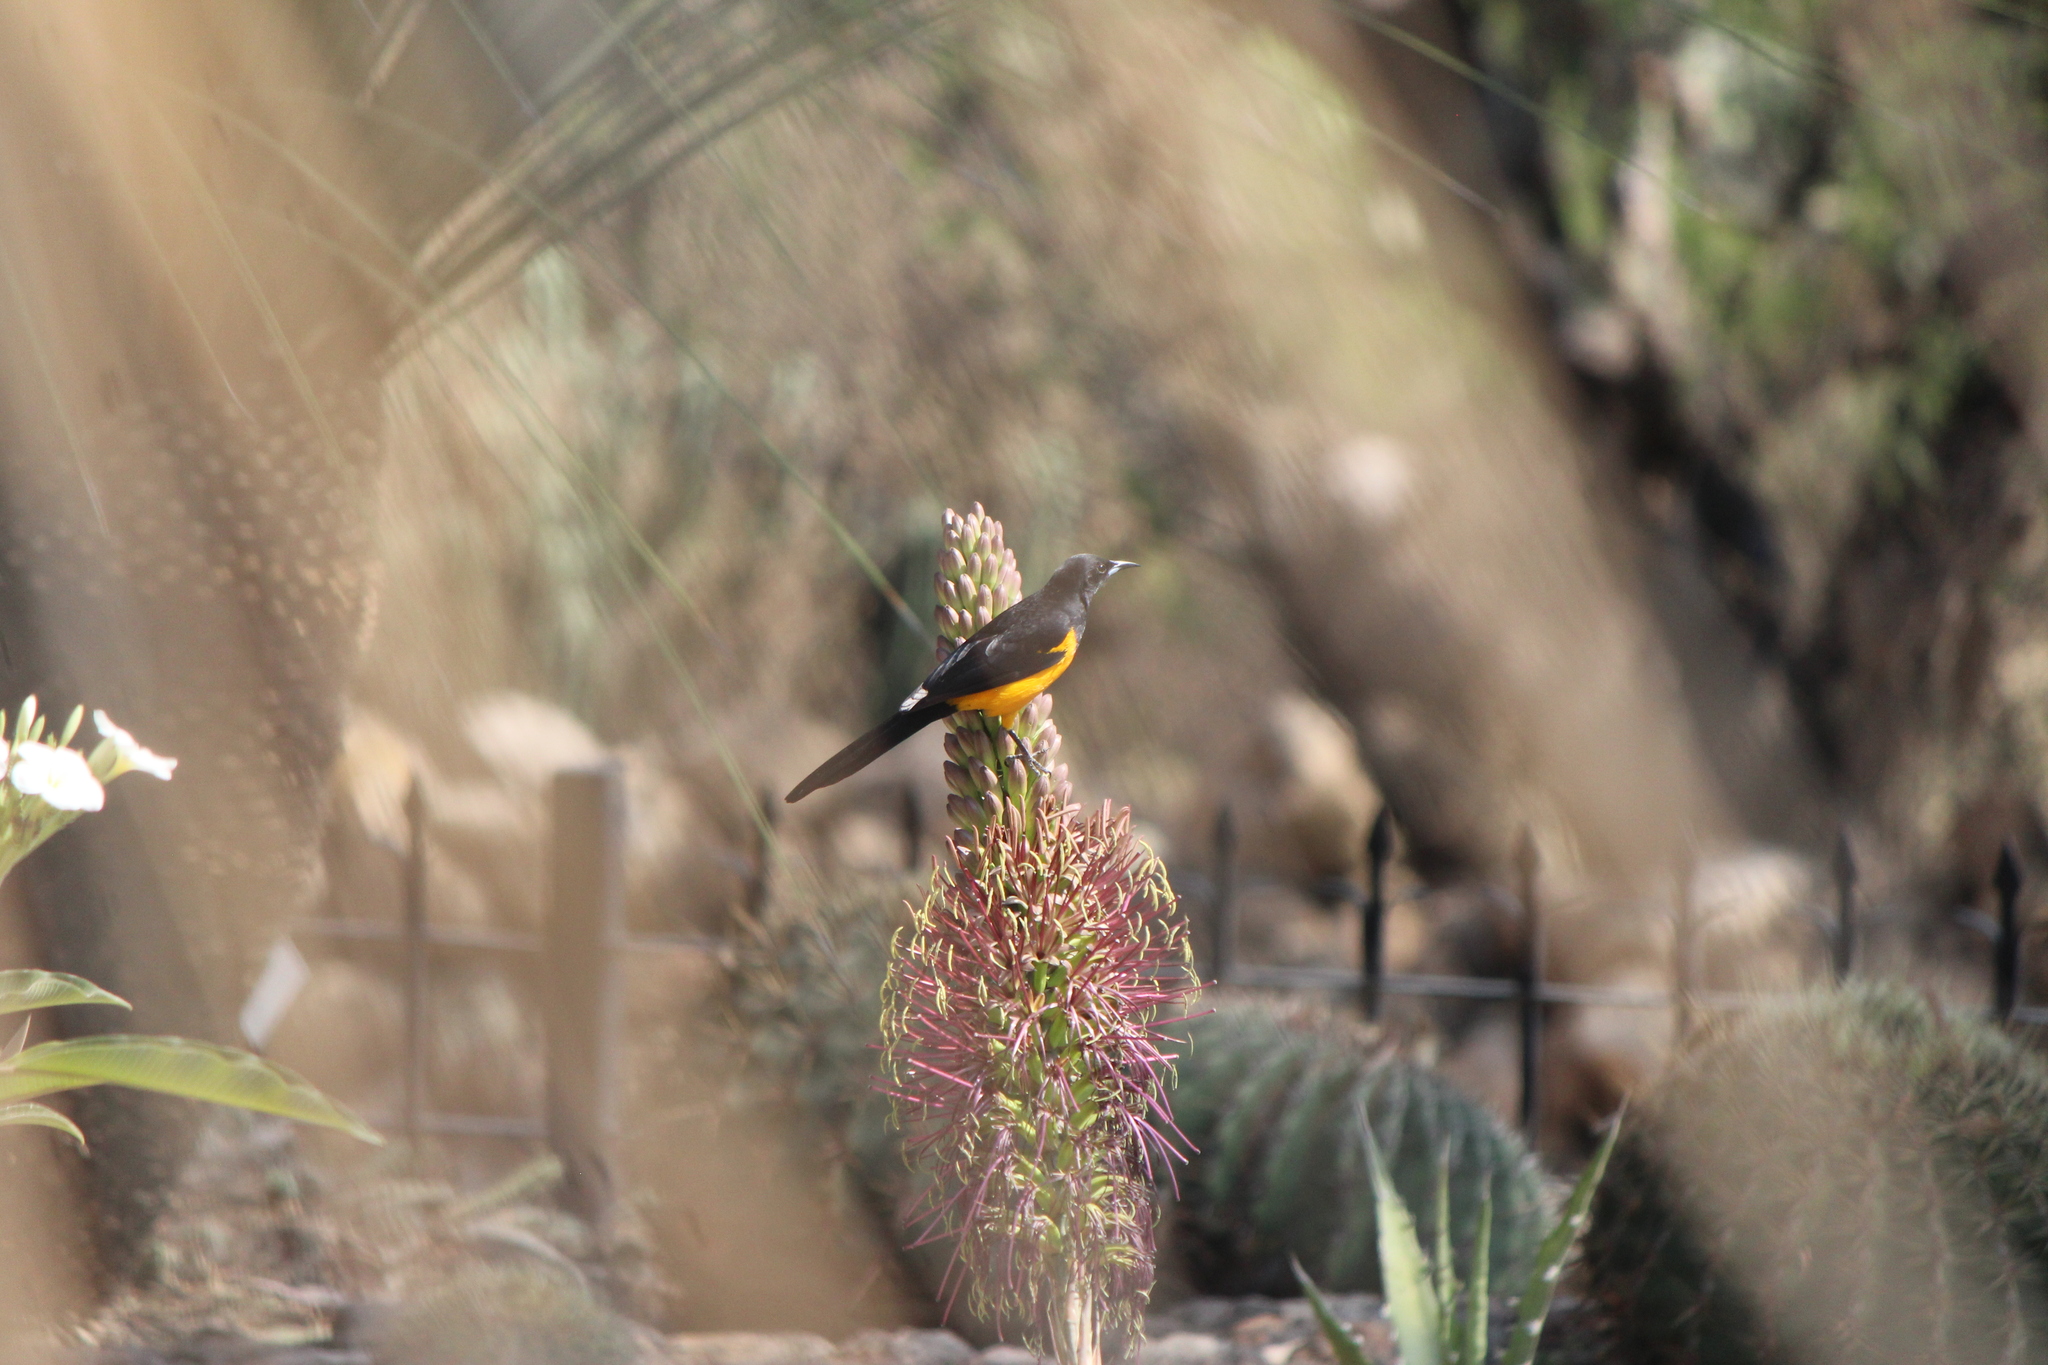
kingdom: Animalia
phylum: Chordata
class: Aves
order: Passeriformes
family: Icteridae
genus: Icterus
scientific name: Icterus wagleri
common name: Black-vented oriole
